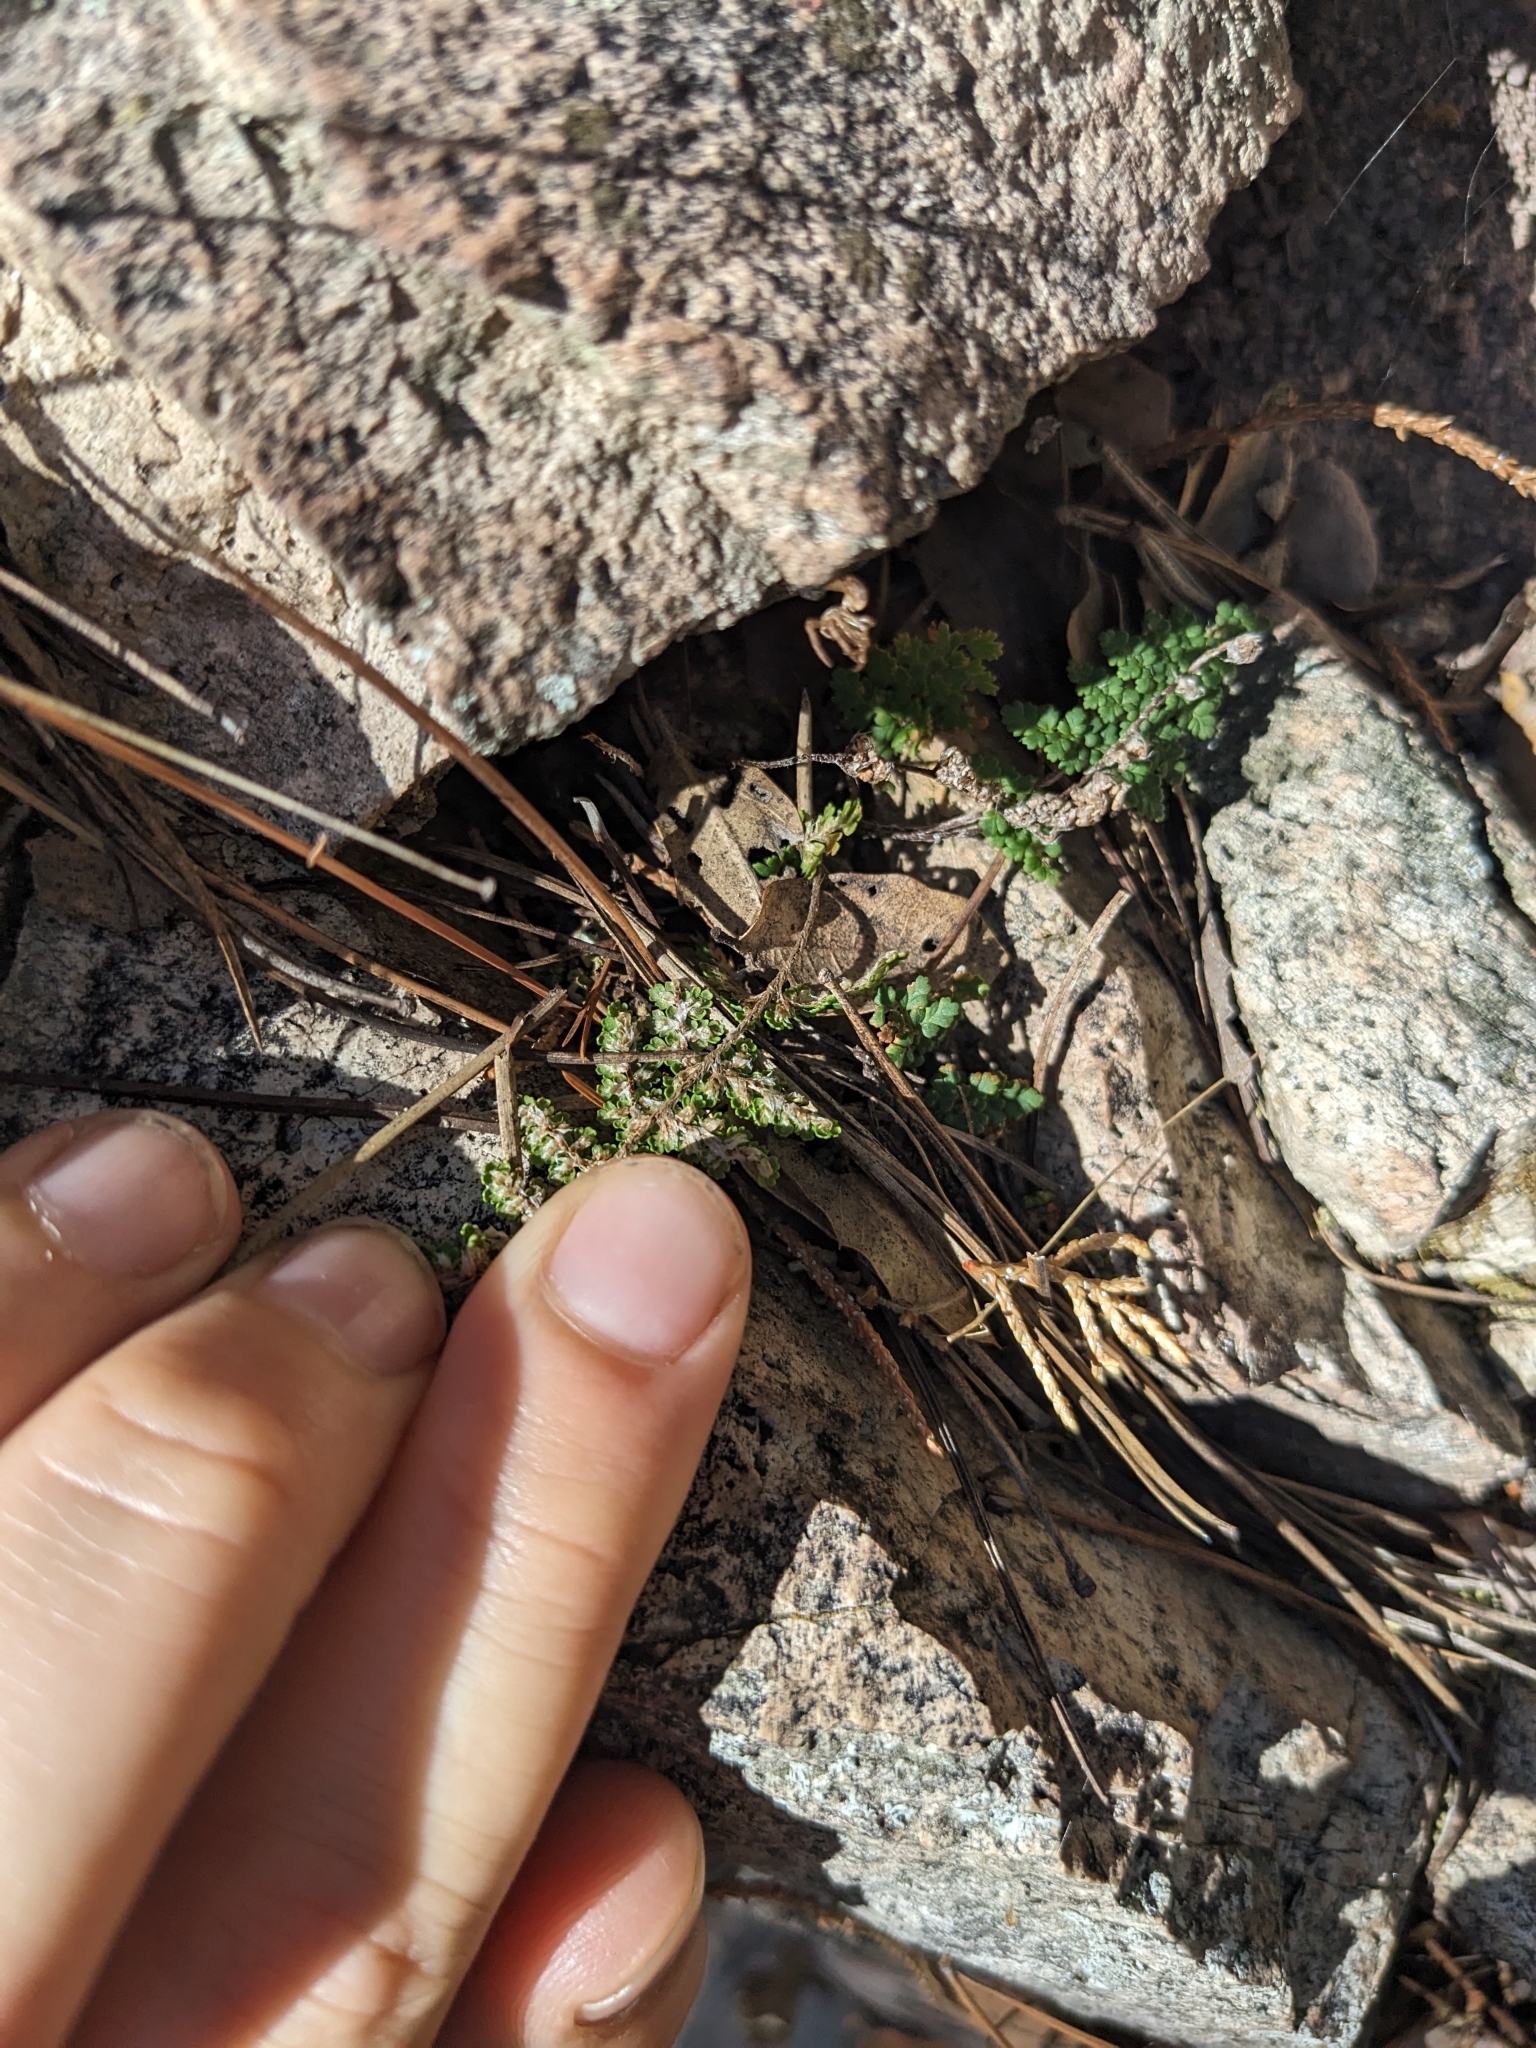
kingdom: Plantae
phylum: Tracheophyta
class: Polypodiopsida
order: Polypodiales
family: Pteridaceae
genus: Myriopteris
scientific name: Myriopteris fendleri
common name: Fendler's lip fern
